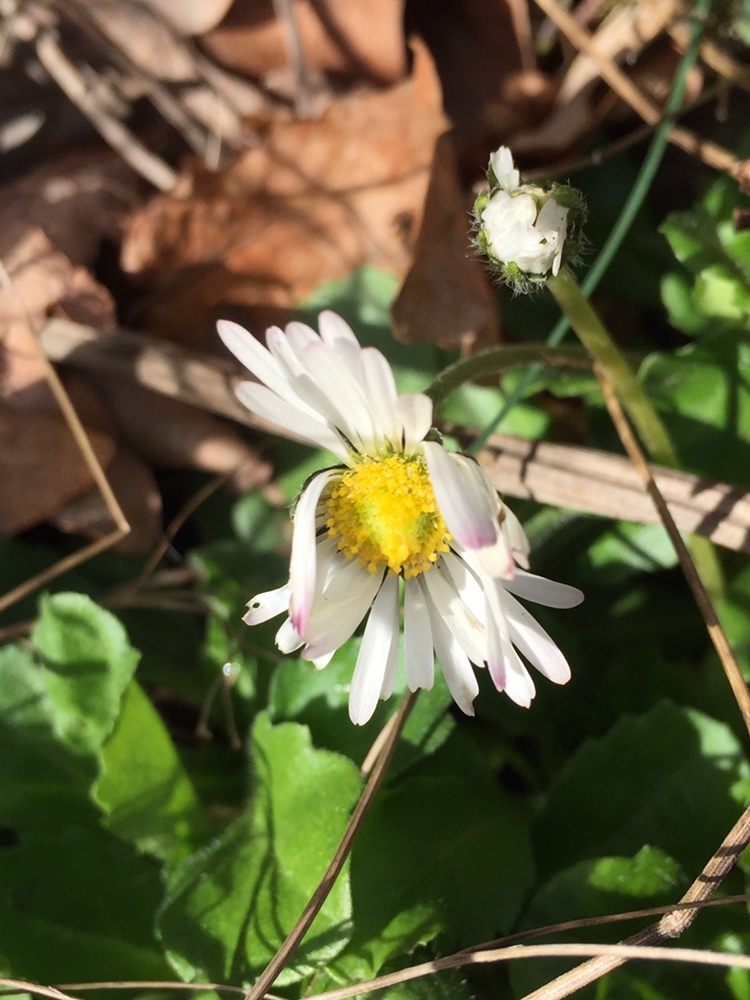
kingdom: Plantae
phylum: Tracheophyta
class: Magnoliopsida
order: Asterales
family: Asteraceae
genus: Bellis
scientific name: Bellis perennis
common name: Lawndaisy
